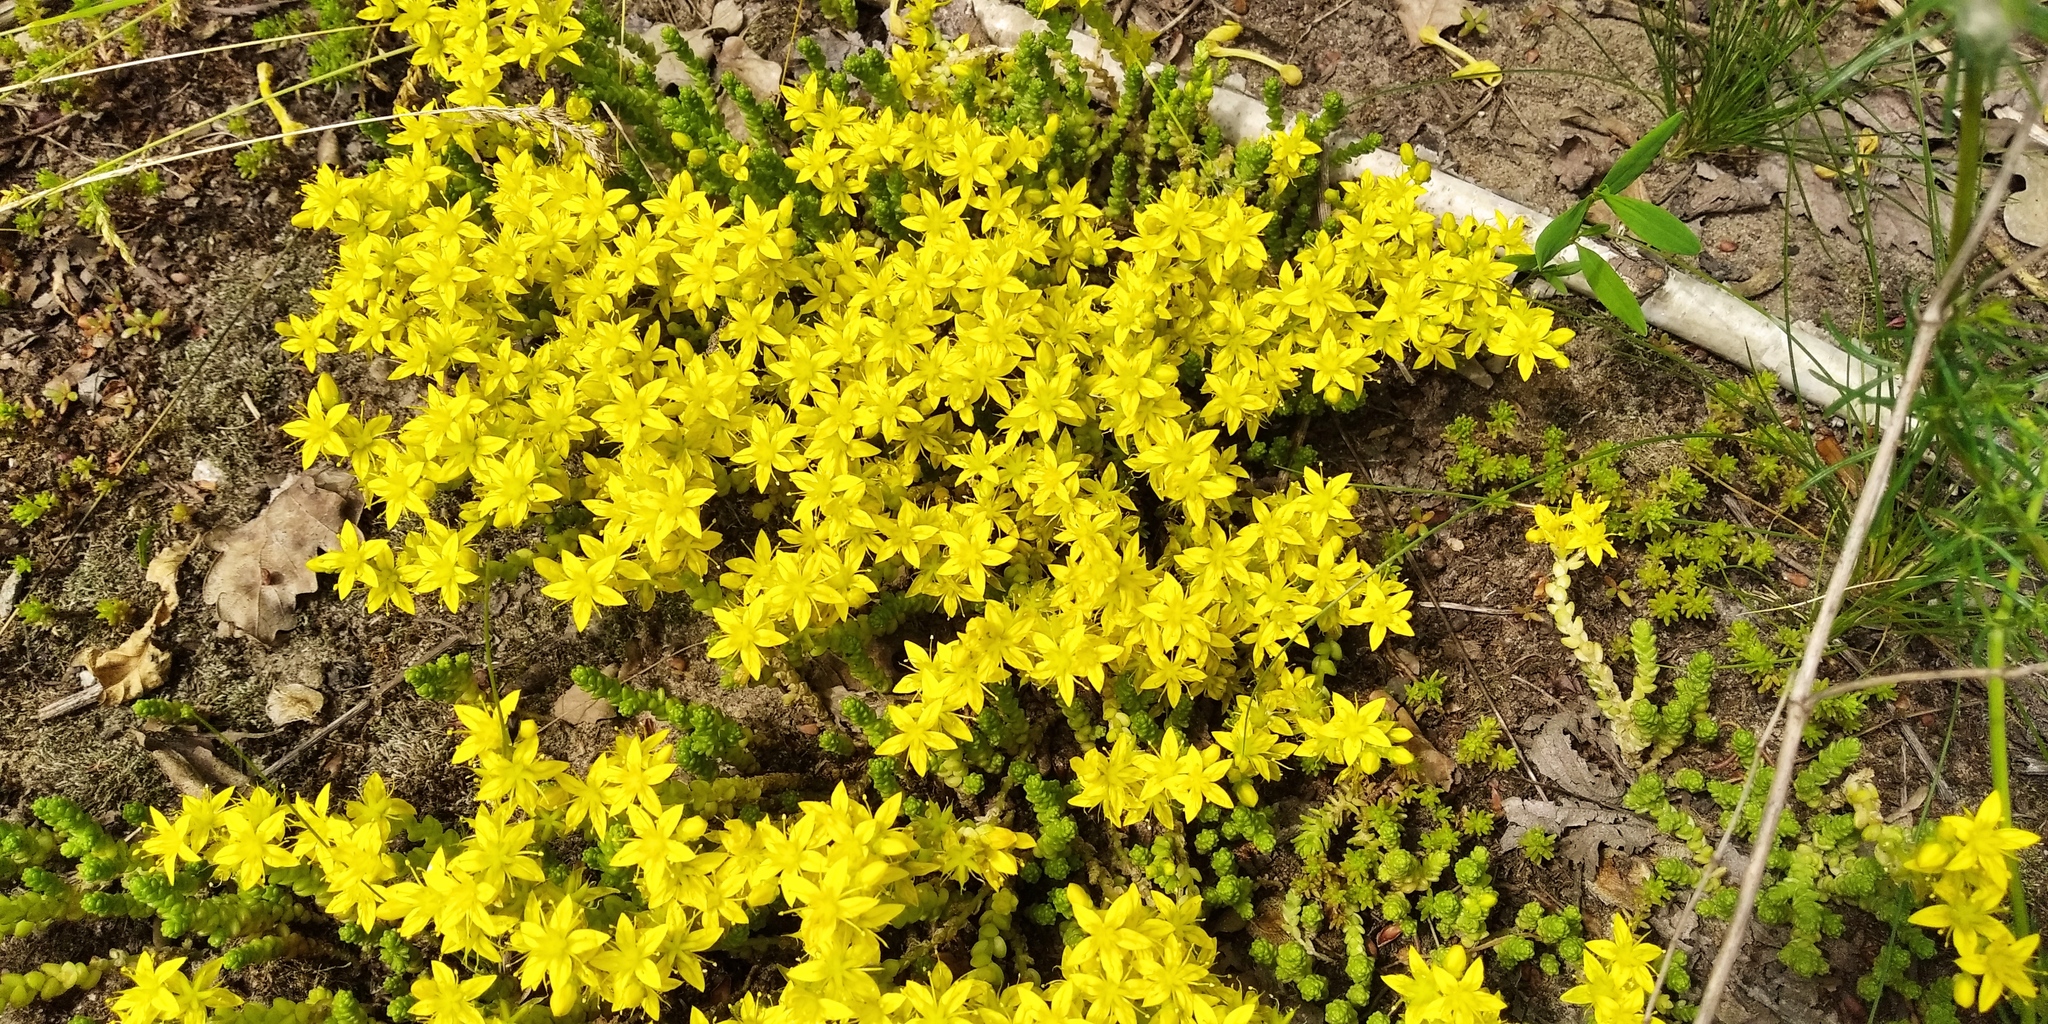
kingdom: Plantae
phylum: Tracheophyta
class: Magnoliopsida
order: Saxifragales
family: Crassulaceae
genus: Sedum
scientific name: Sedum acre
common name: Biting stonecrop
